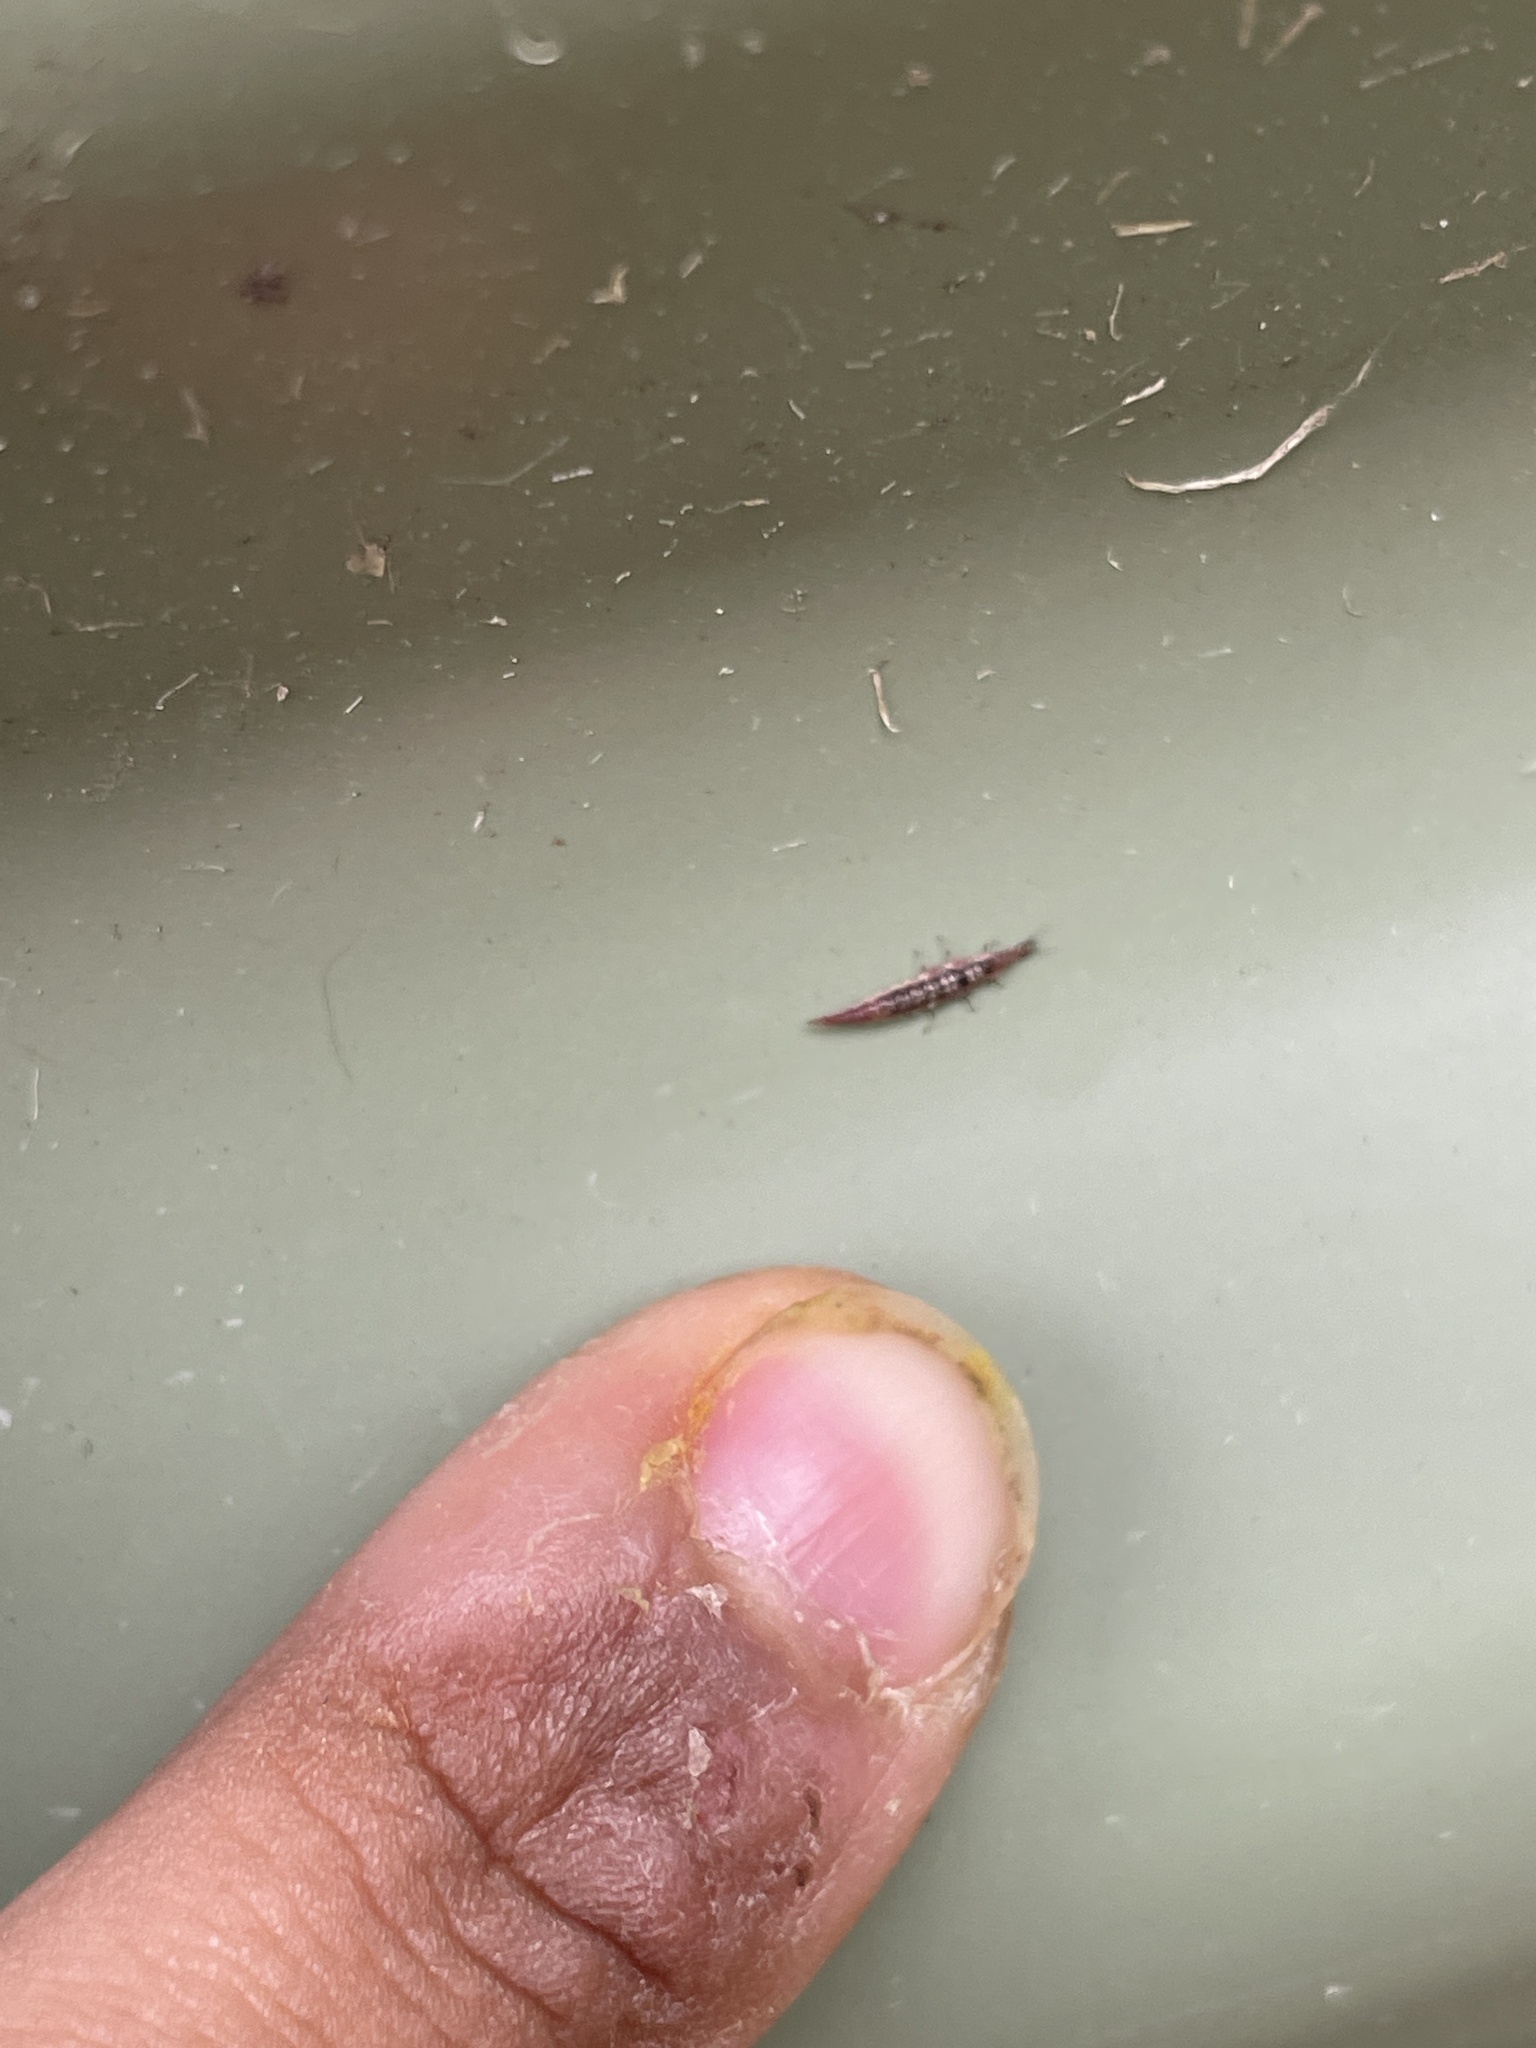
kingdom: Animalia
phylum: Arthropoda
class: Insecta
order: Neuroptera
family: Hemerobiidae
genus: Micromus
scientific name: Micromus tasmaniae
